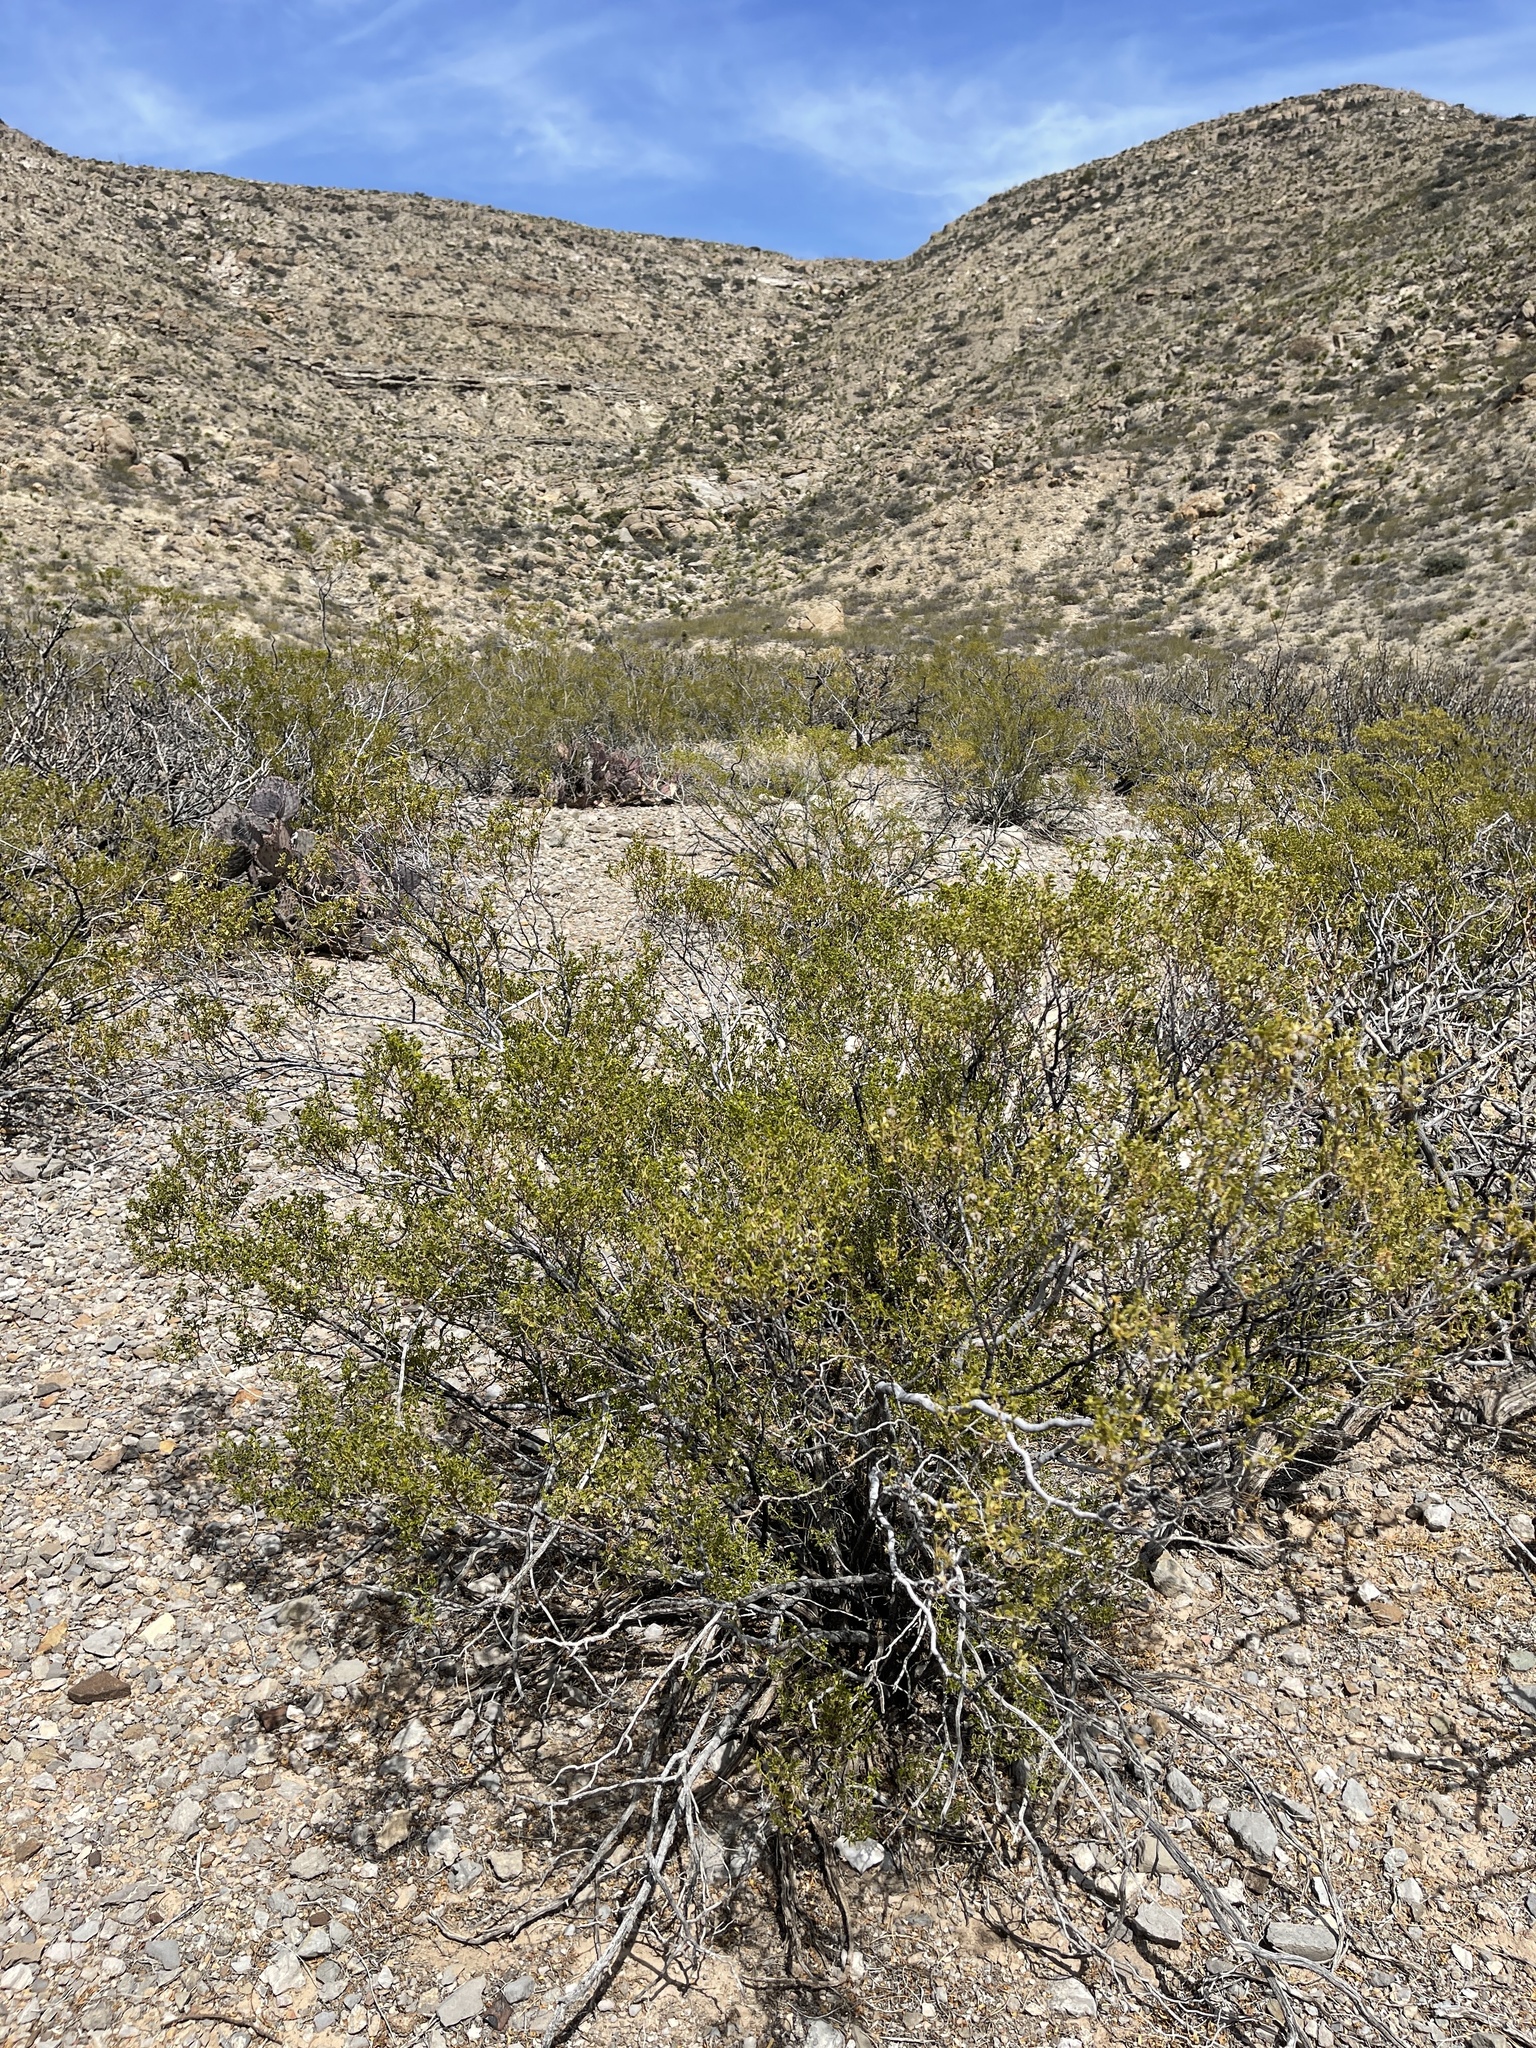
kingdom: Plantae
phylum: Tracheophyta
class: Magnoliopsida
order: Zygophyllales
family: Zygophyllaceae
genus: Larrea
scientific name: Larrea tridentata
